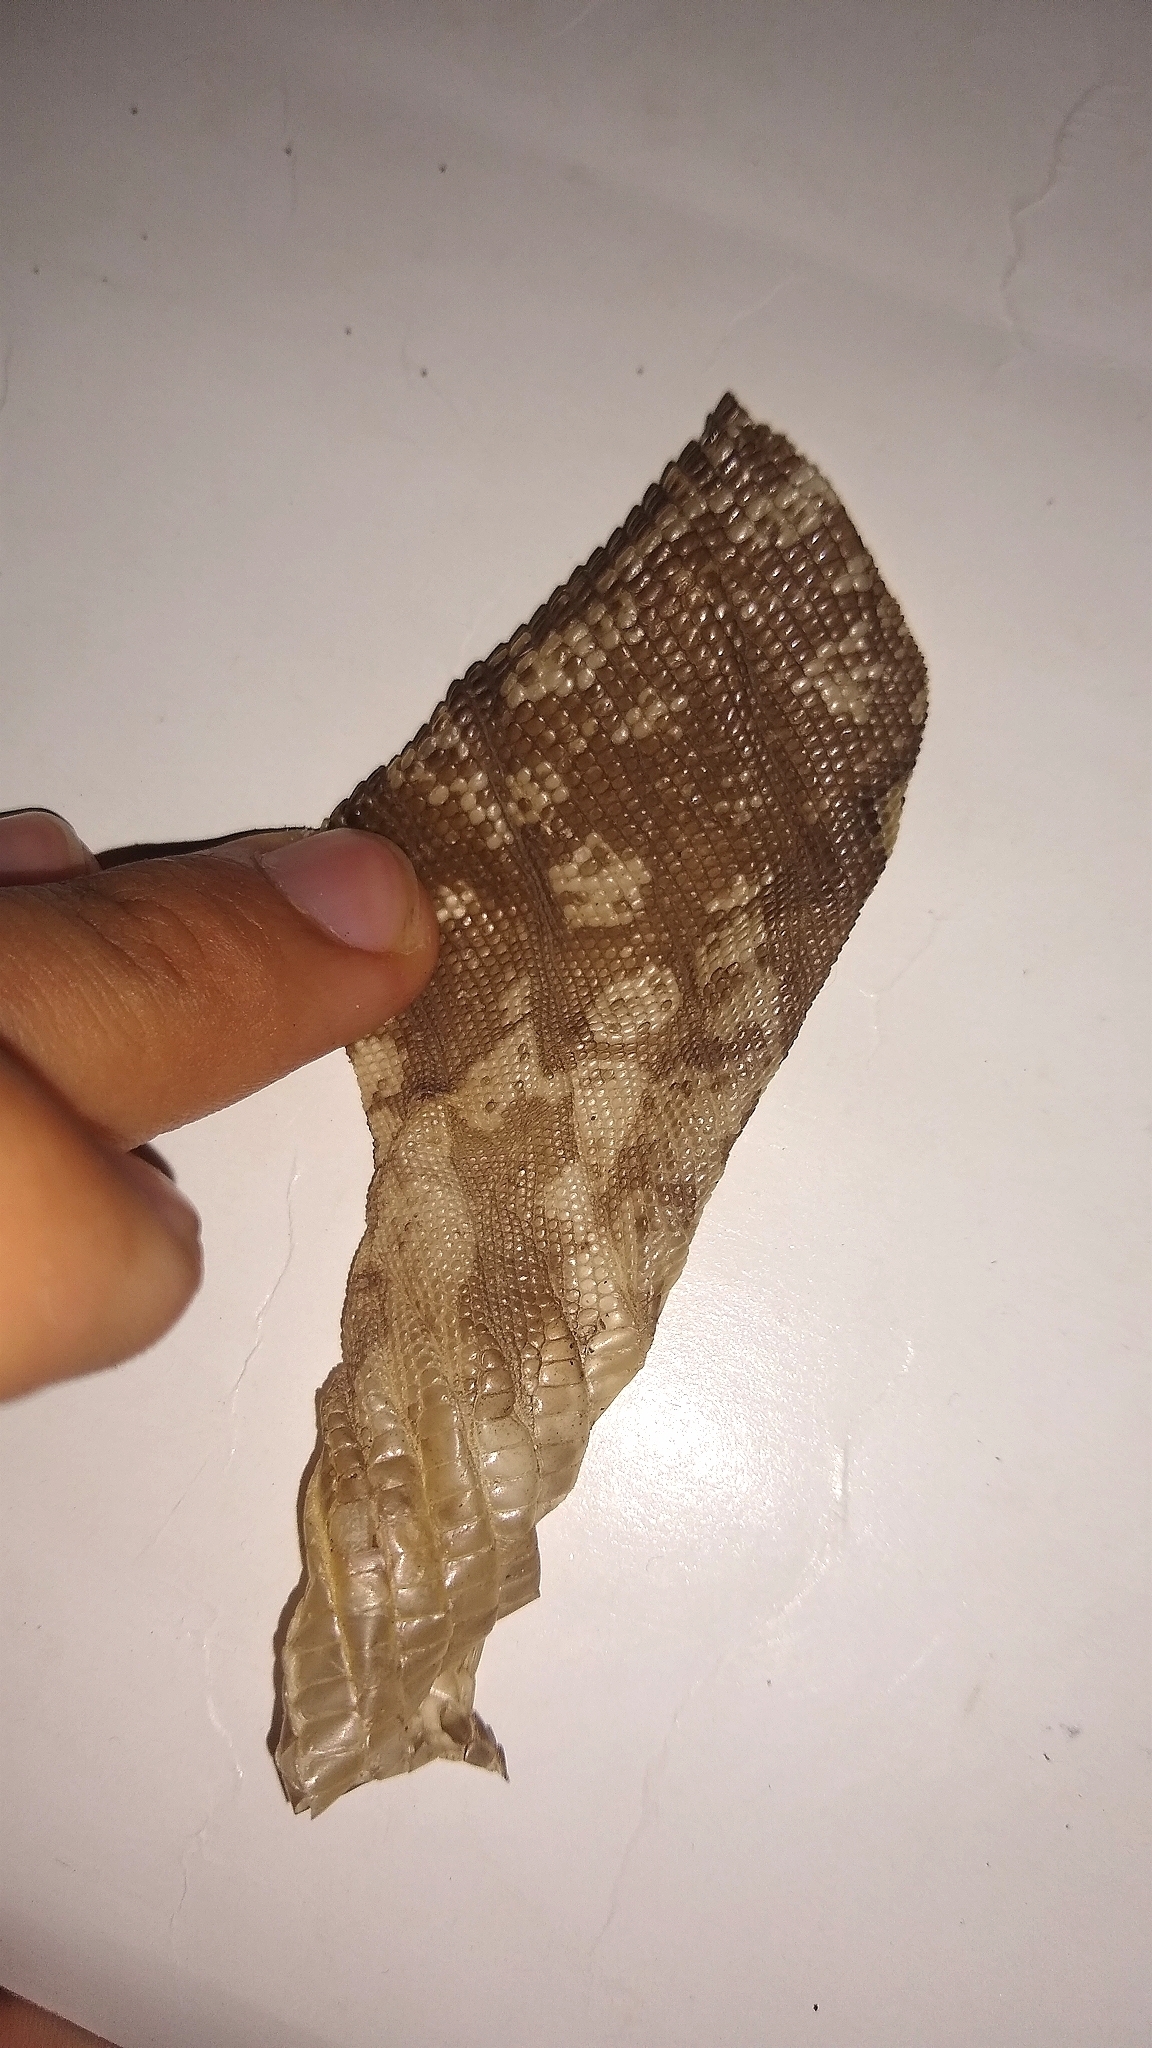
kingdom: Animalia
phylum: Chordata
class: Squamata
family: Teiidae
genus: Salvator
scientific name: Salvator merianae
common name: Argentine black and white tegu
